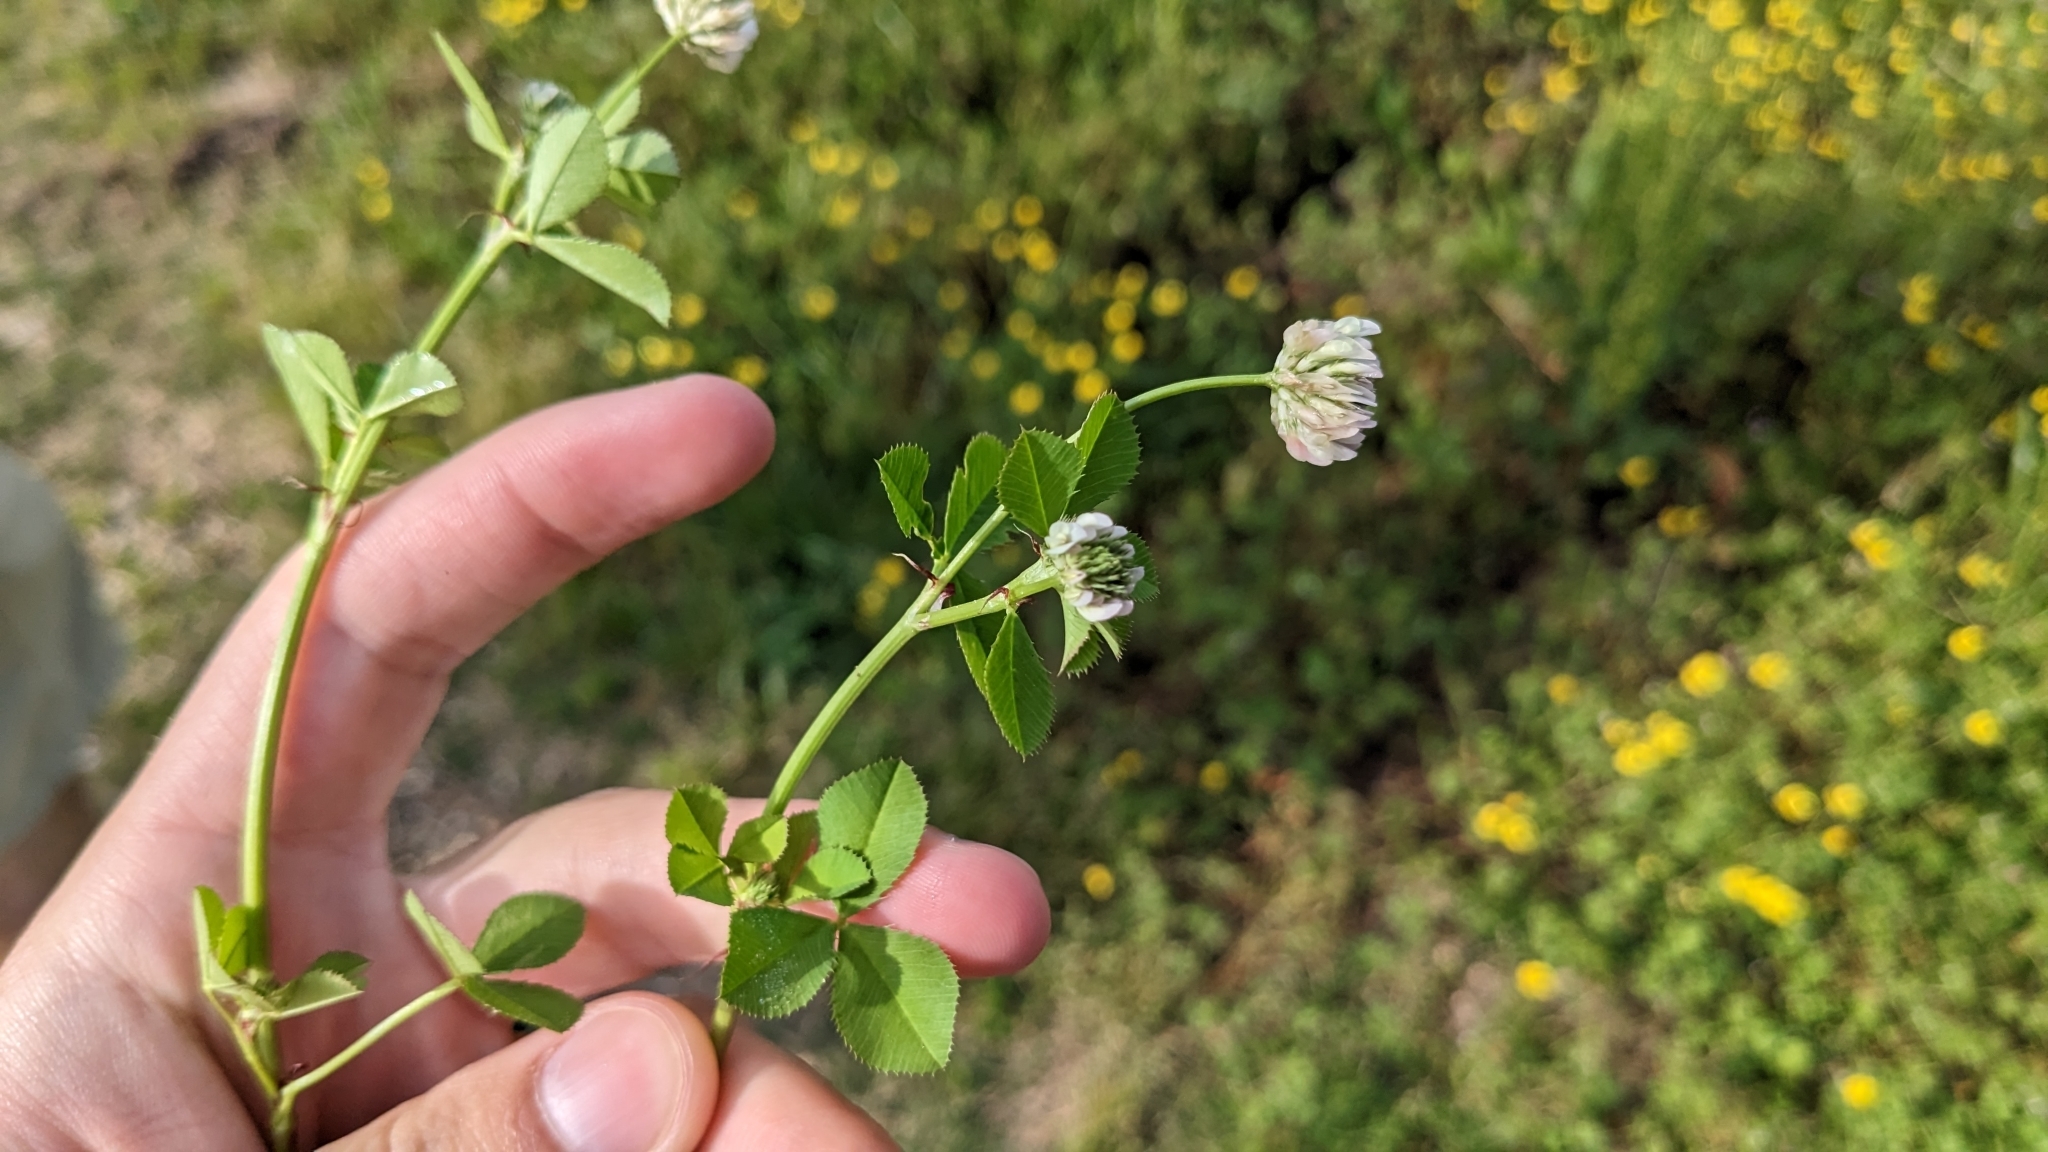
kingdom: Plantae
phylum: Tracheophyta
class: Magnoliopsida
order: Fabales
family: Fabaceae
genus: Trifolium
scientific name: Trifolium nigrescens
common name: Small white clover
